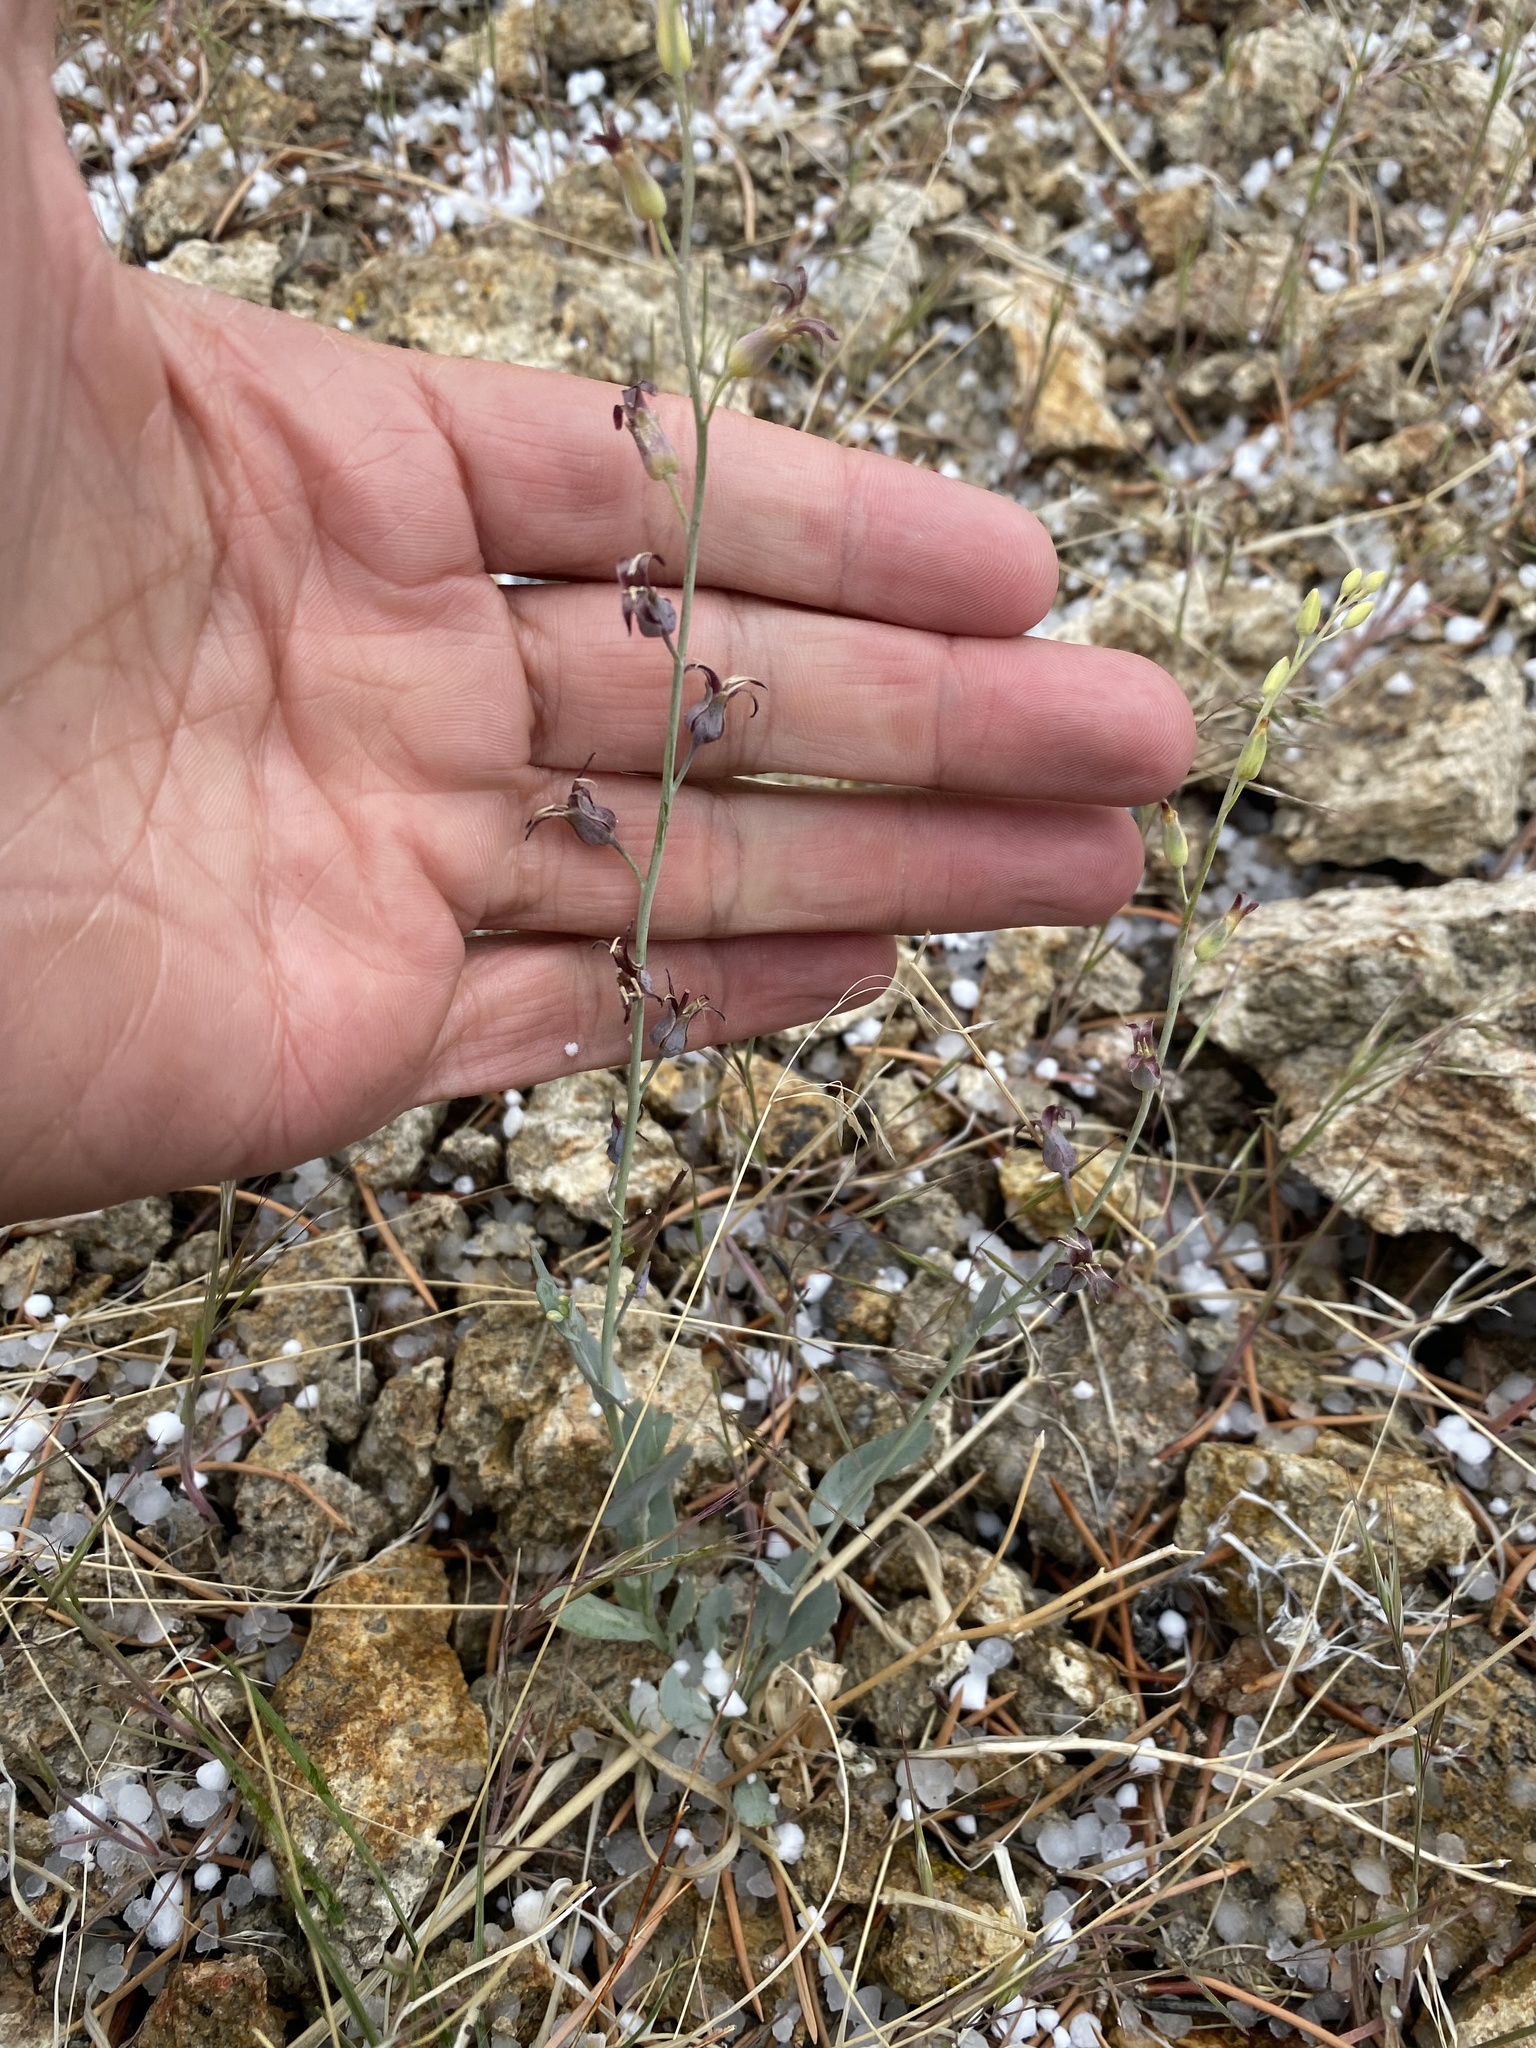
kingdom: Plantae
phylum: Tracheophyta
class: Magnoliopsida
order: Brassicales
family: Brassicaceae
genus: Streptanthus
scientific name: Streptanthus cordatus
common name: Heart-leaf jewel-flower
